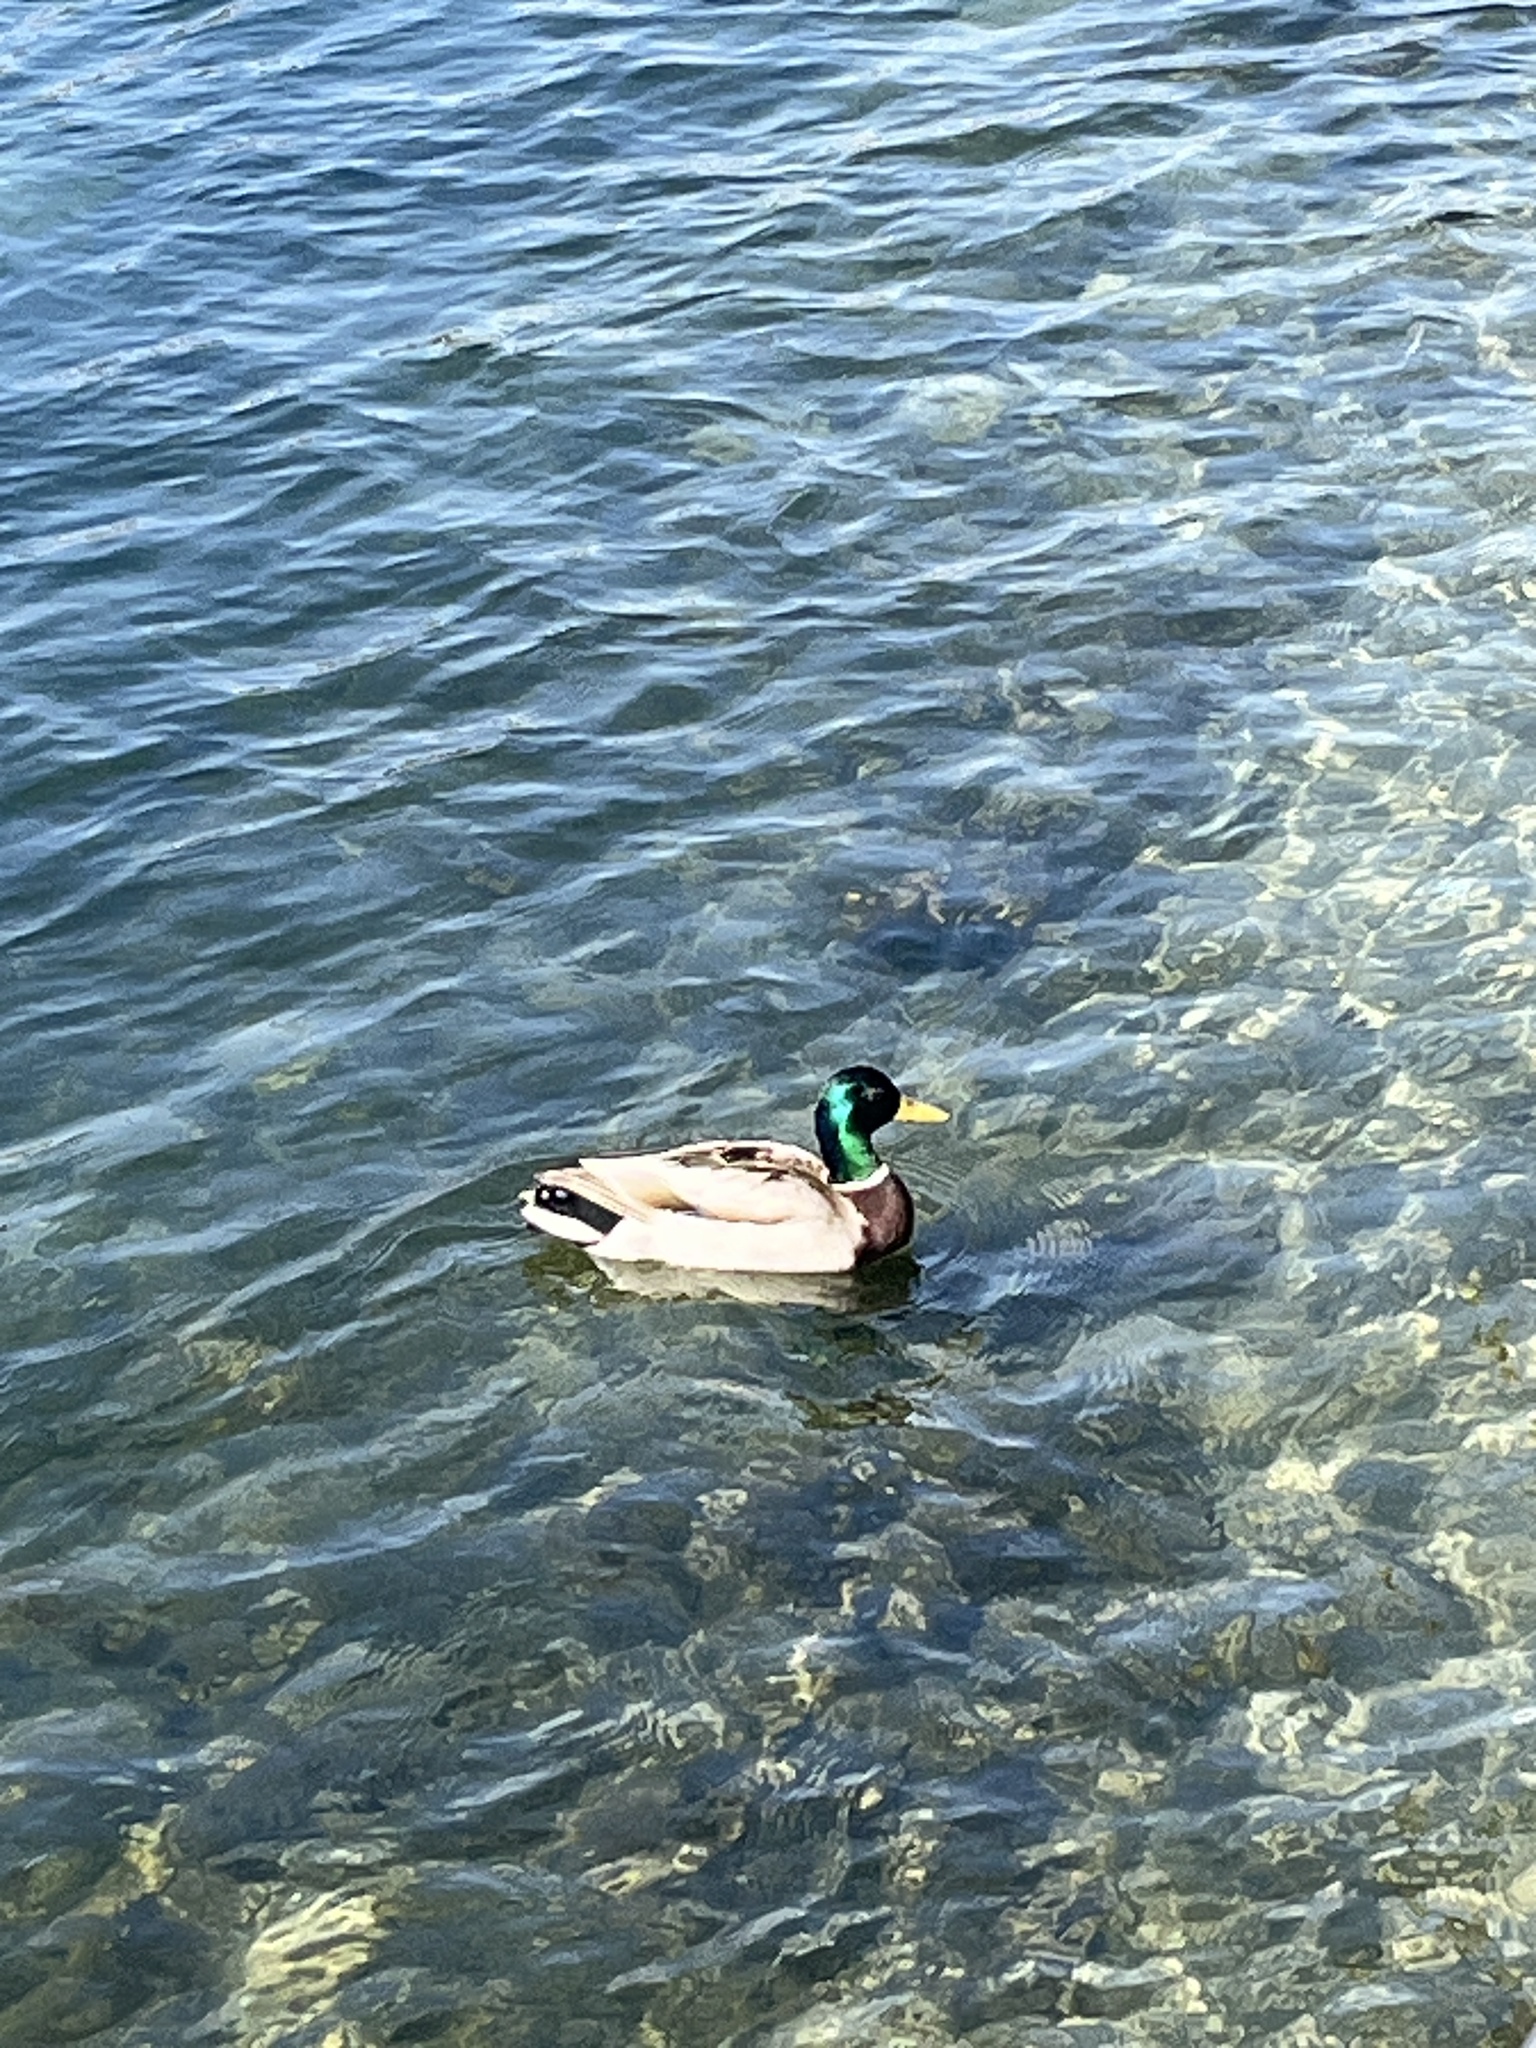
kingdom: Animalia
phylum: Chordata
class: Aves
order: Anseriformes
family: Anatidae
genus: Anas
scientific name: Anas platyrhynchos
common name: Mallard
